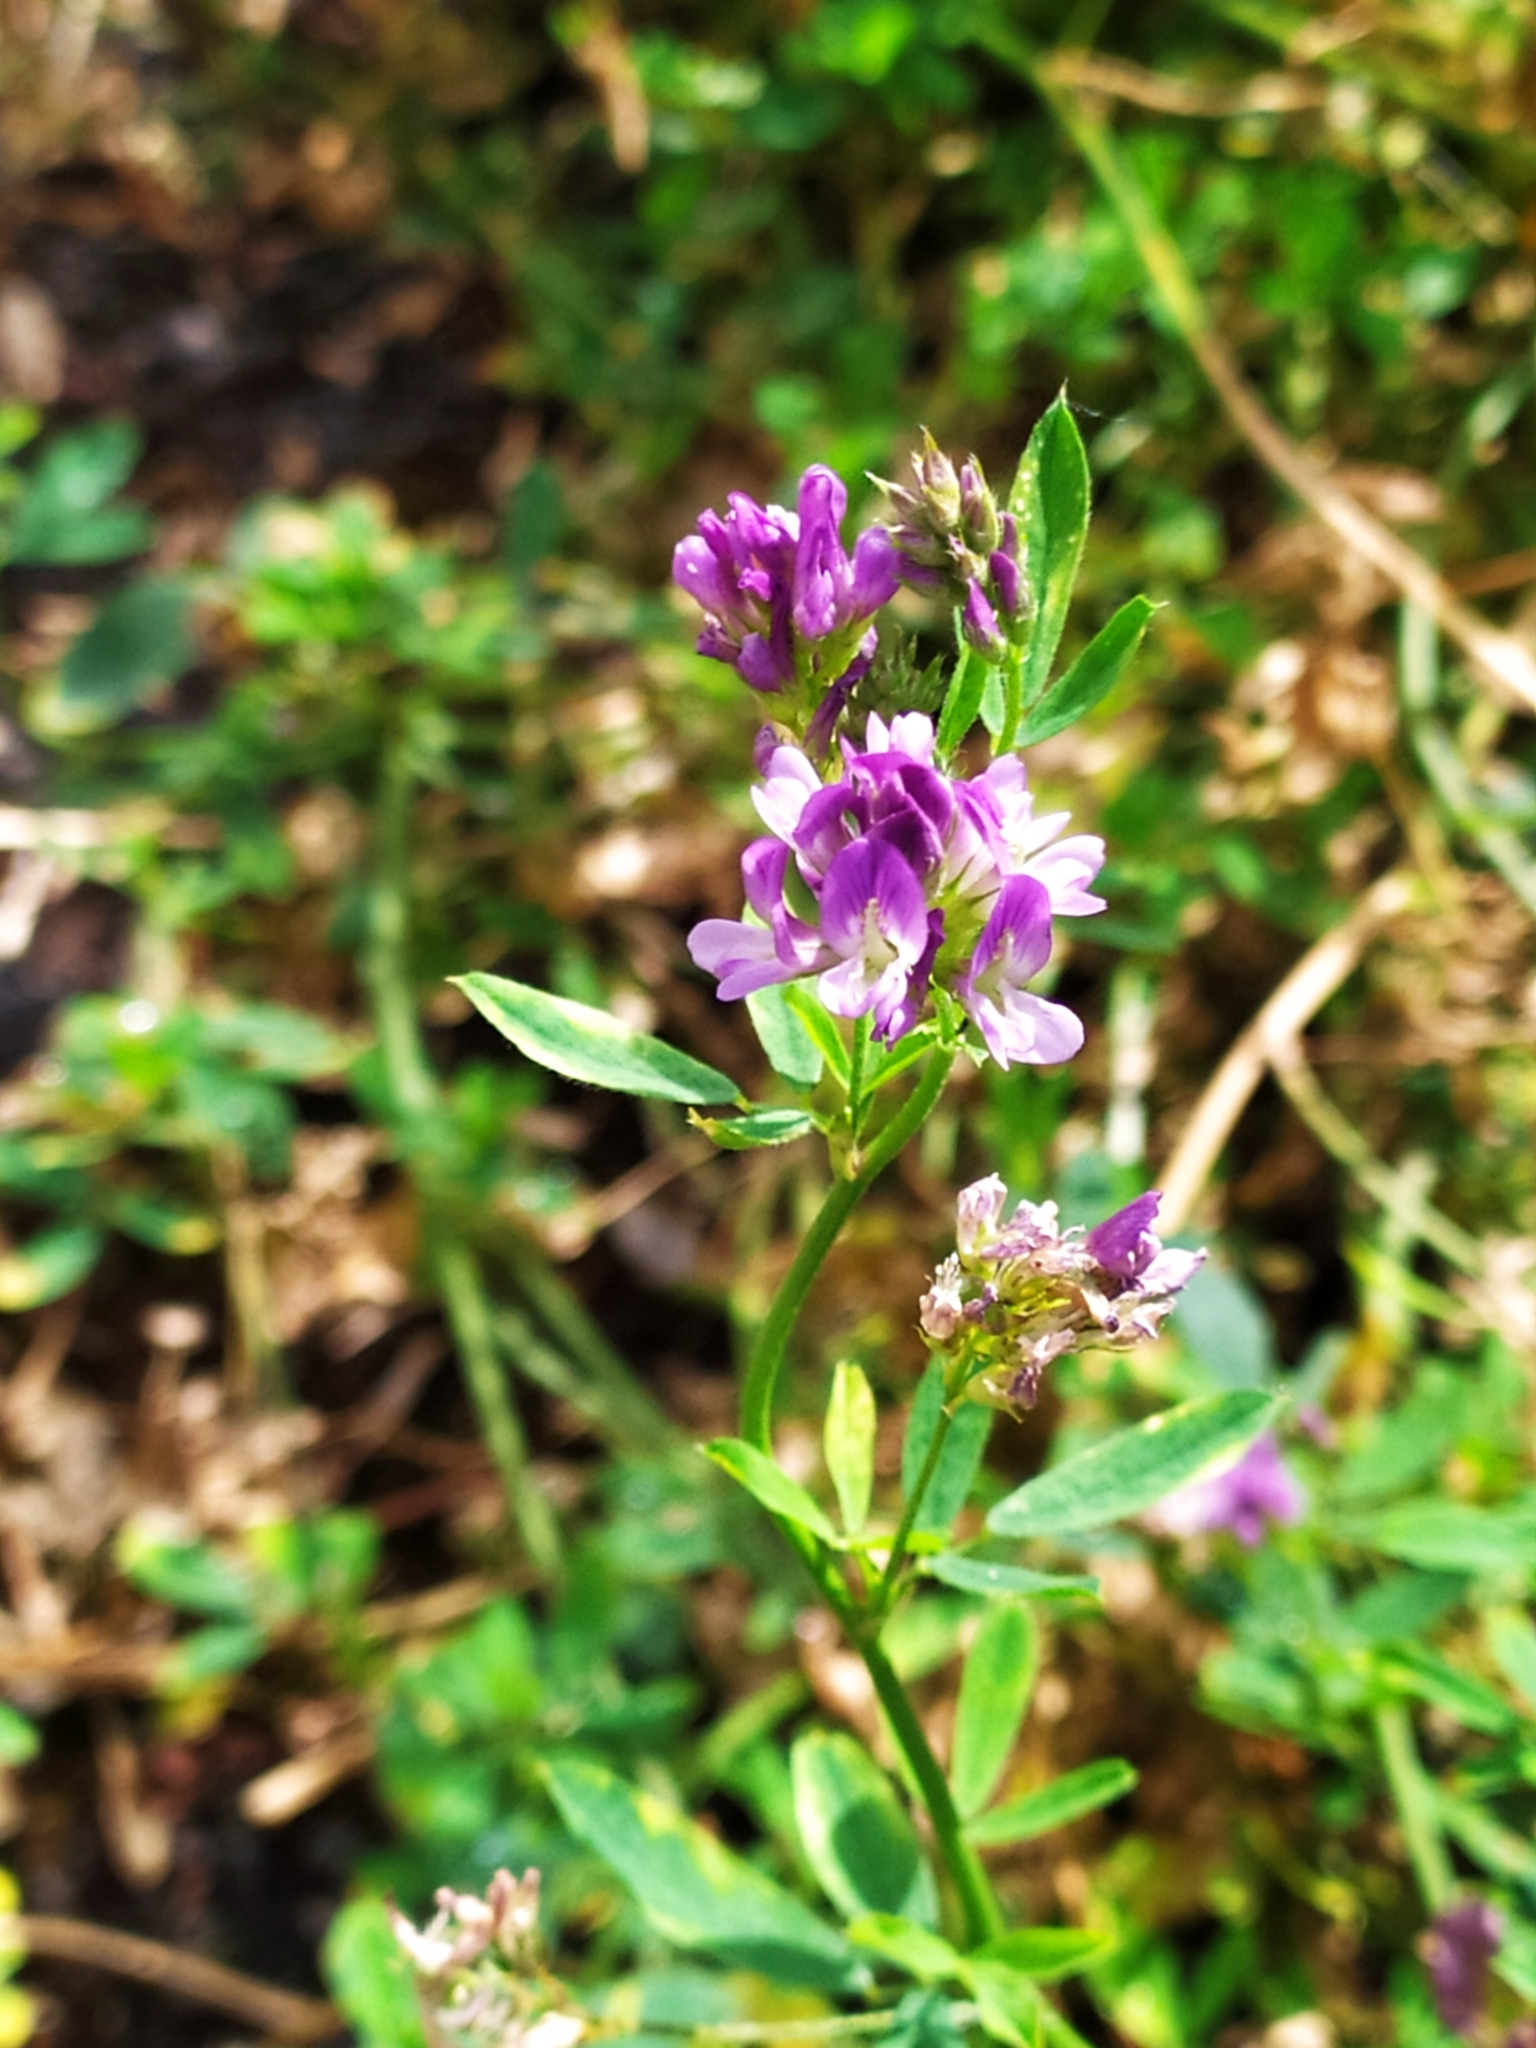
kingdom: Plantae
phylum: Tracheophyta
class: Magnoliopsida
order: Fabales
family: Fabaceae
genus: Medicago
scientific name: Medicago sativa
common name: Alfalfa
